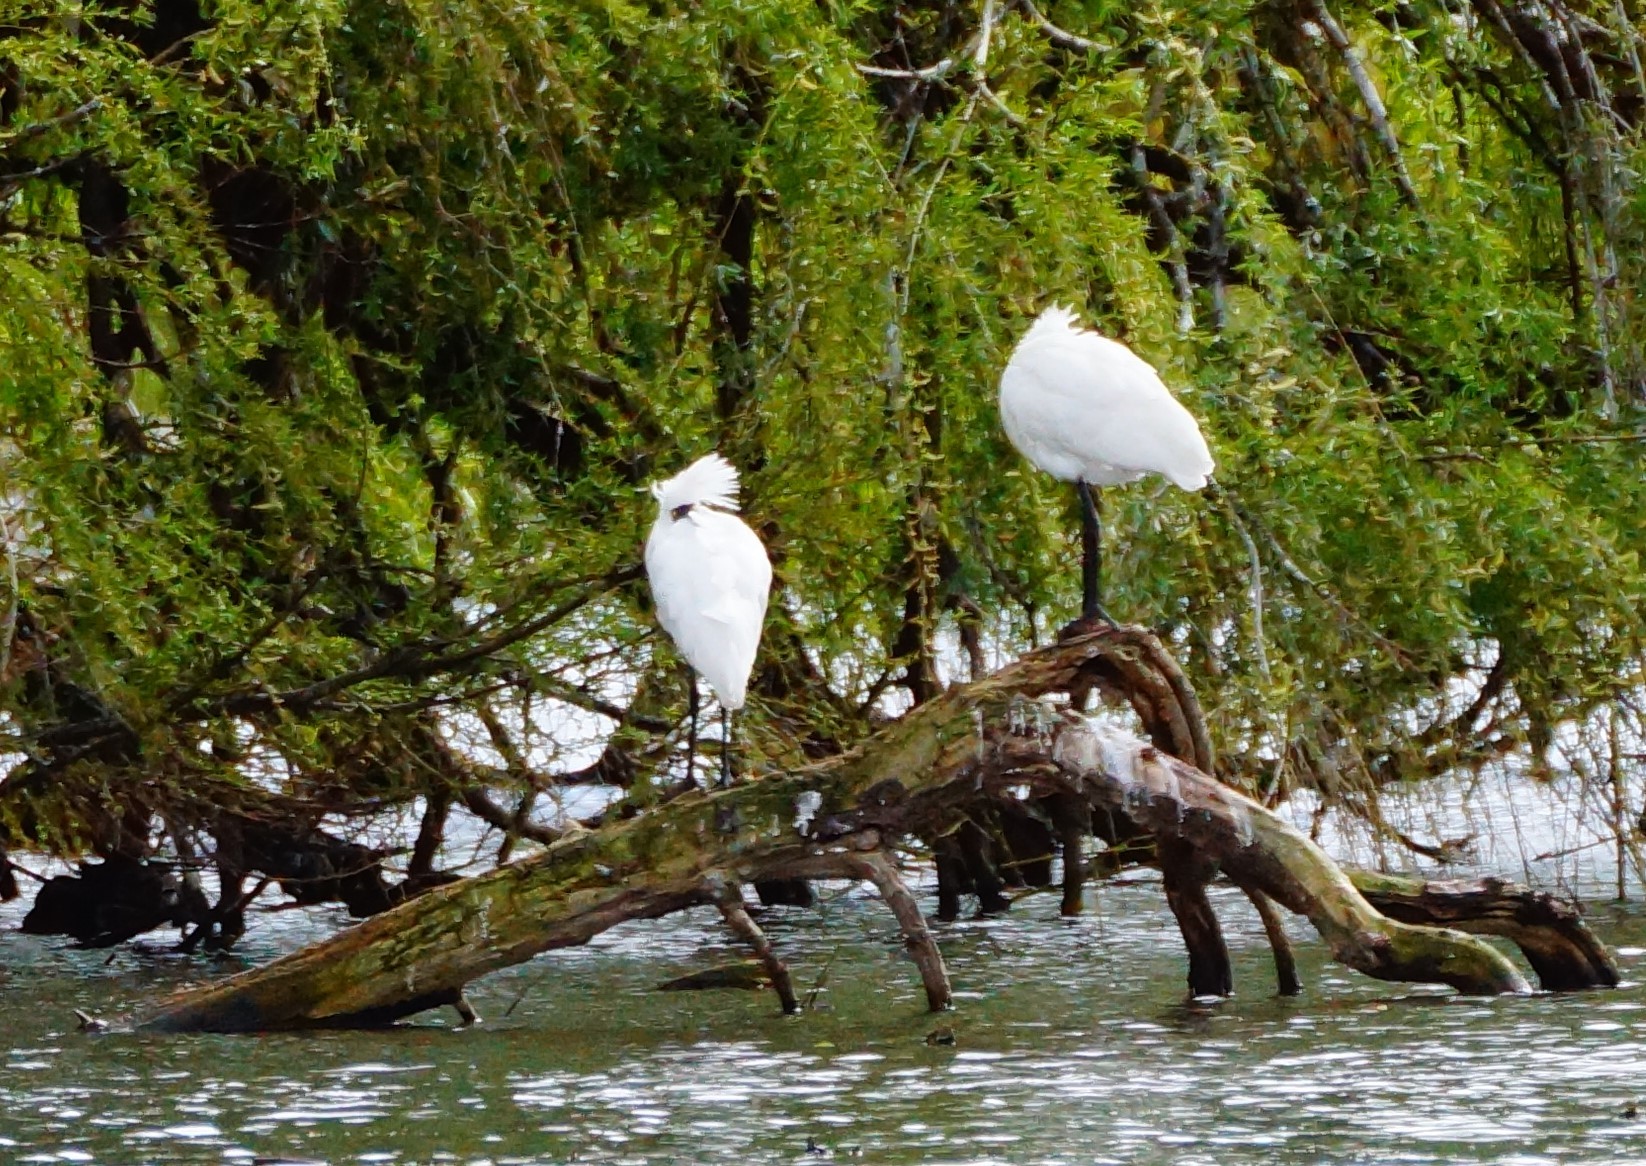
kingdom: Animalia
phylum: Chordata
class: Aves
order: Pelecaniformes
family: Threskiornithidae
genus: Platalea
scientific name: Platalea regia
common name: Royal spoonbill
